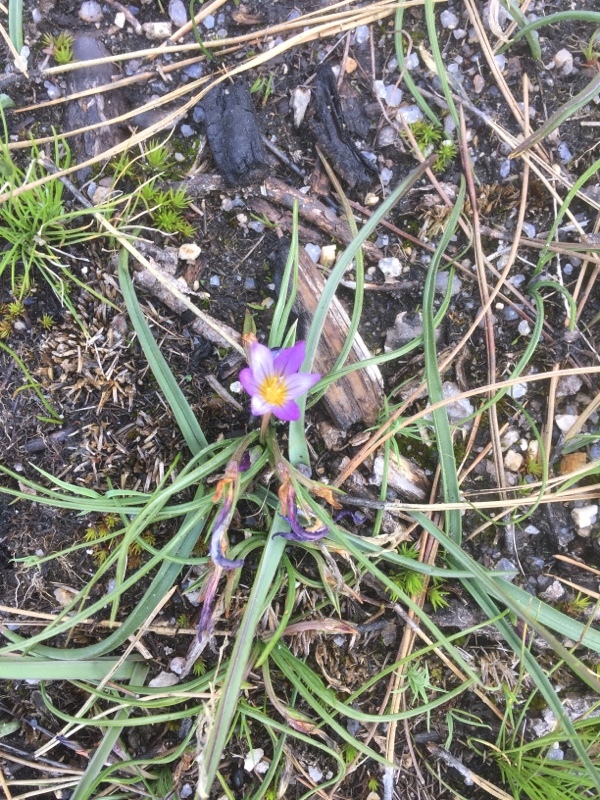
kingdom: Plantae
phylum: Tracheophyta
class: Liliopsida
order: Asparagales
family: Iridaceae
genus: Romulea
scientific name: Romulea bulbocodium
